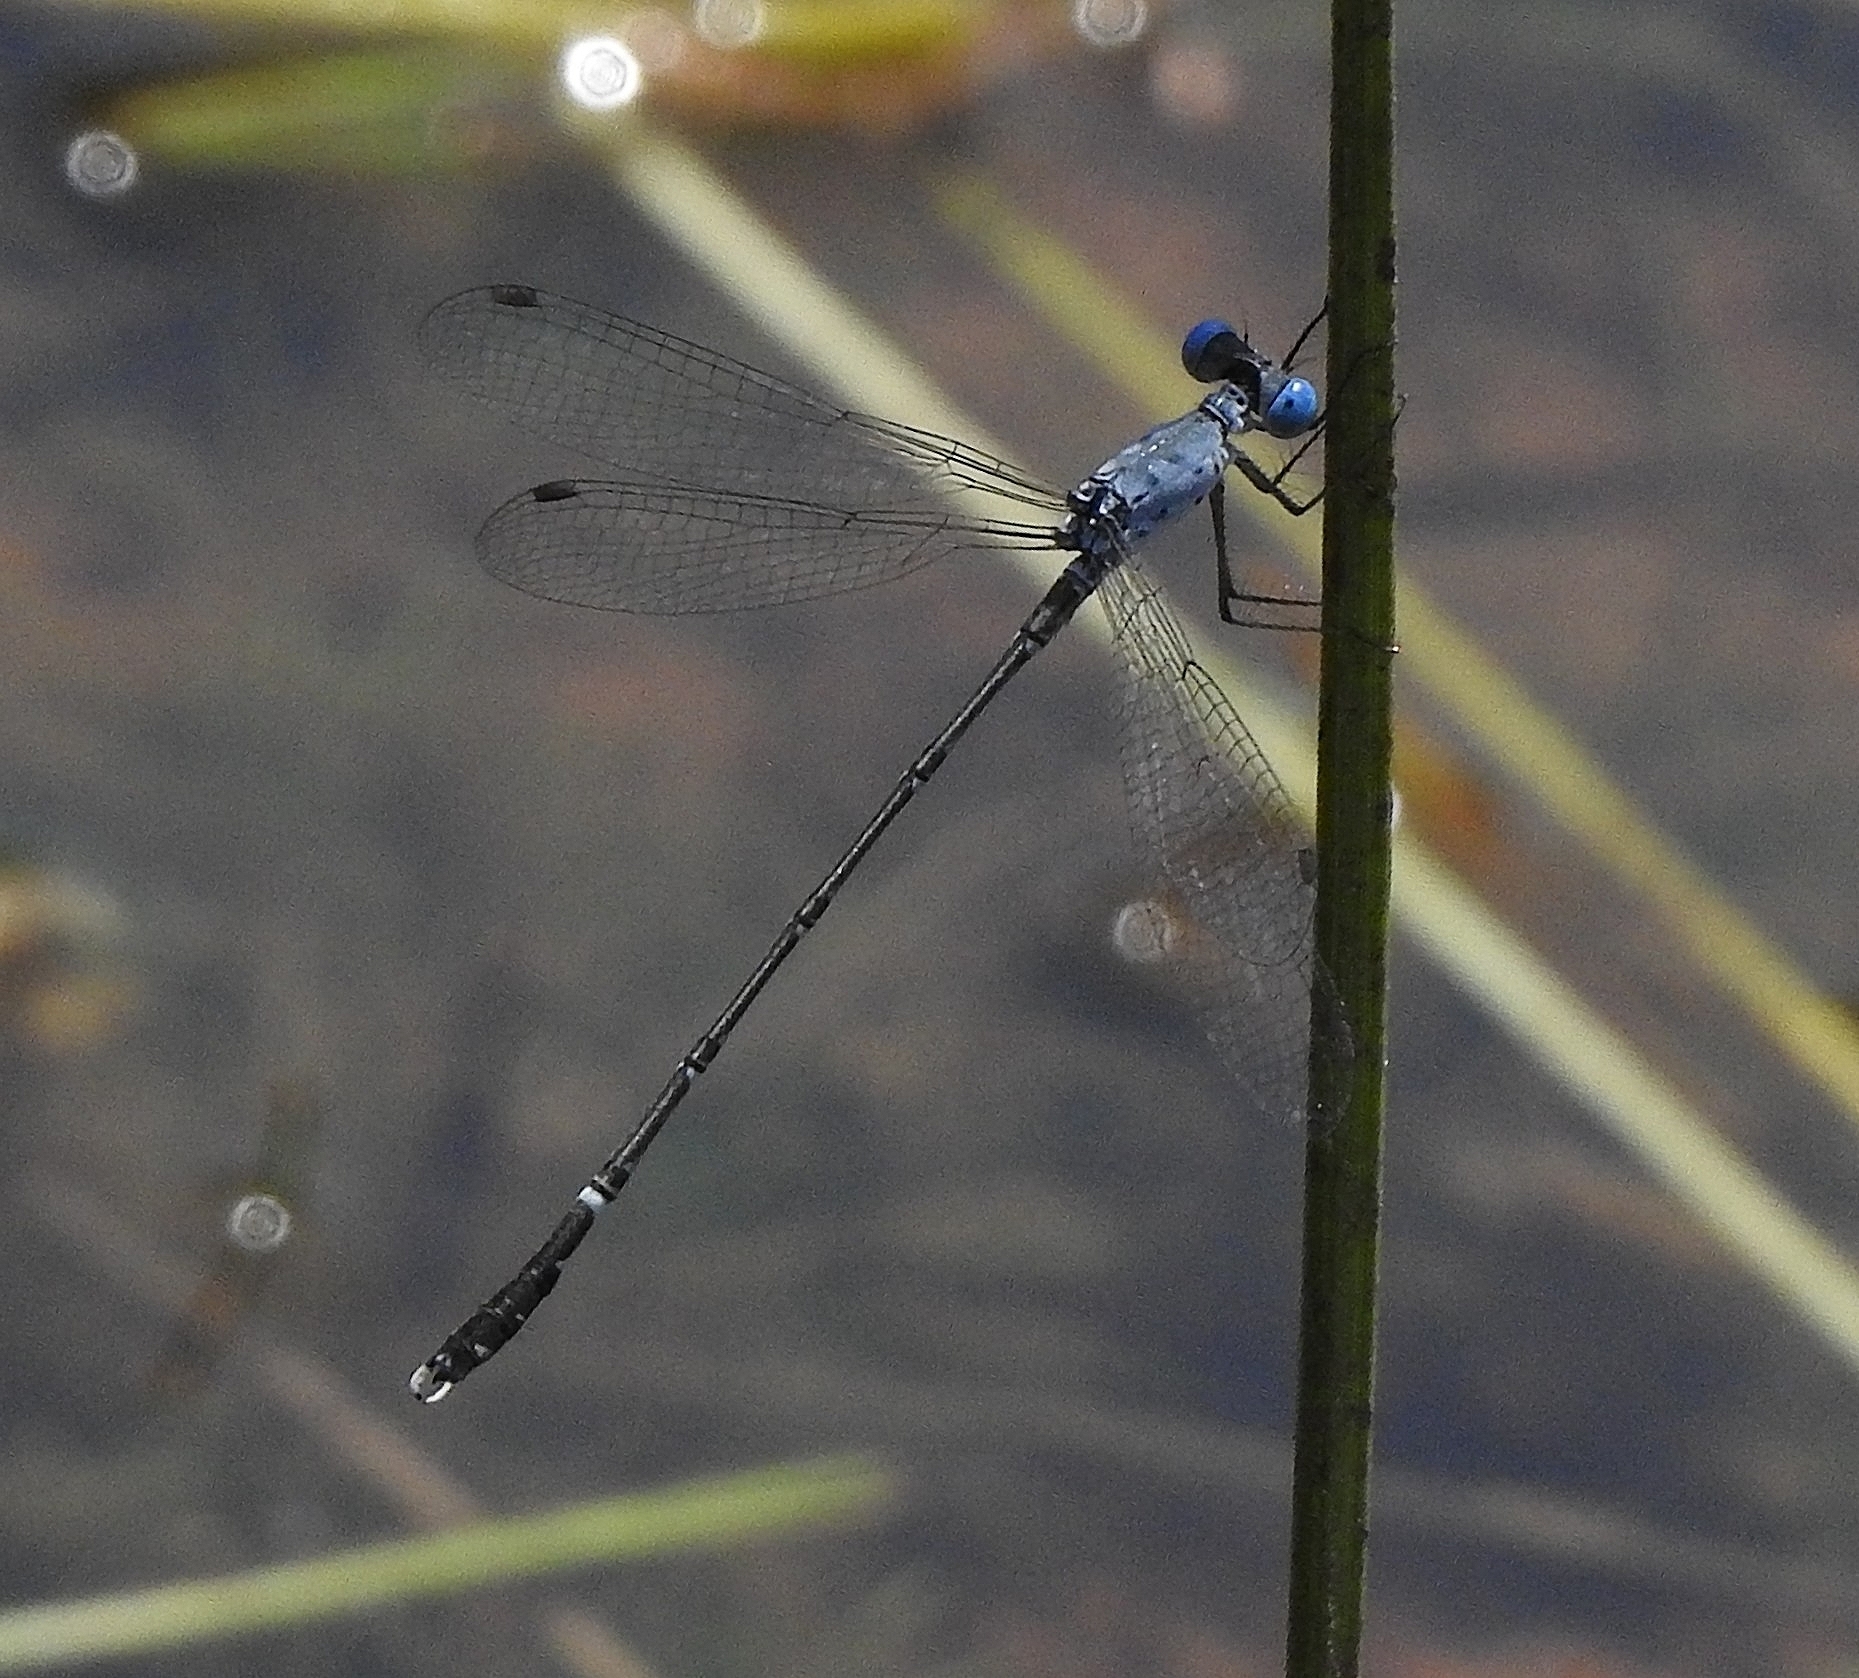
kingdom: Animalia
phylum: Arthropoda
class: Insecta
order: Odonata
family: Lestidae
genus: Lestes
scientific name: Lestes praemorsus
